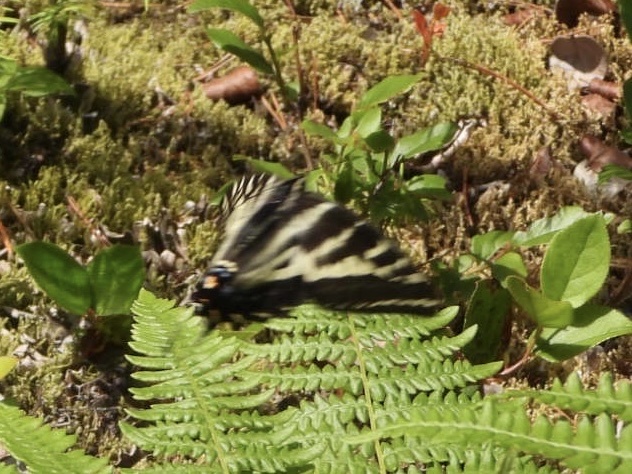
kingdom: Animalia
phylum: Arthropoda
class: Insecta
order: Lepidoptera
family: Papilionidae
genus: Papilio
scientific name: Papilio eurymedon
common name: Pale tiger swallowtail
